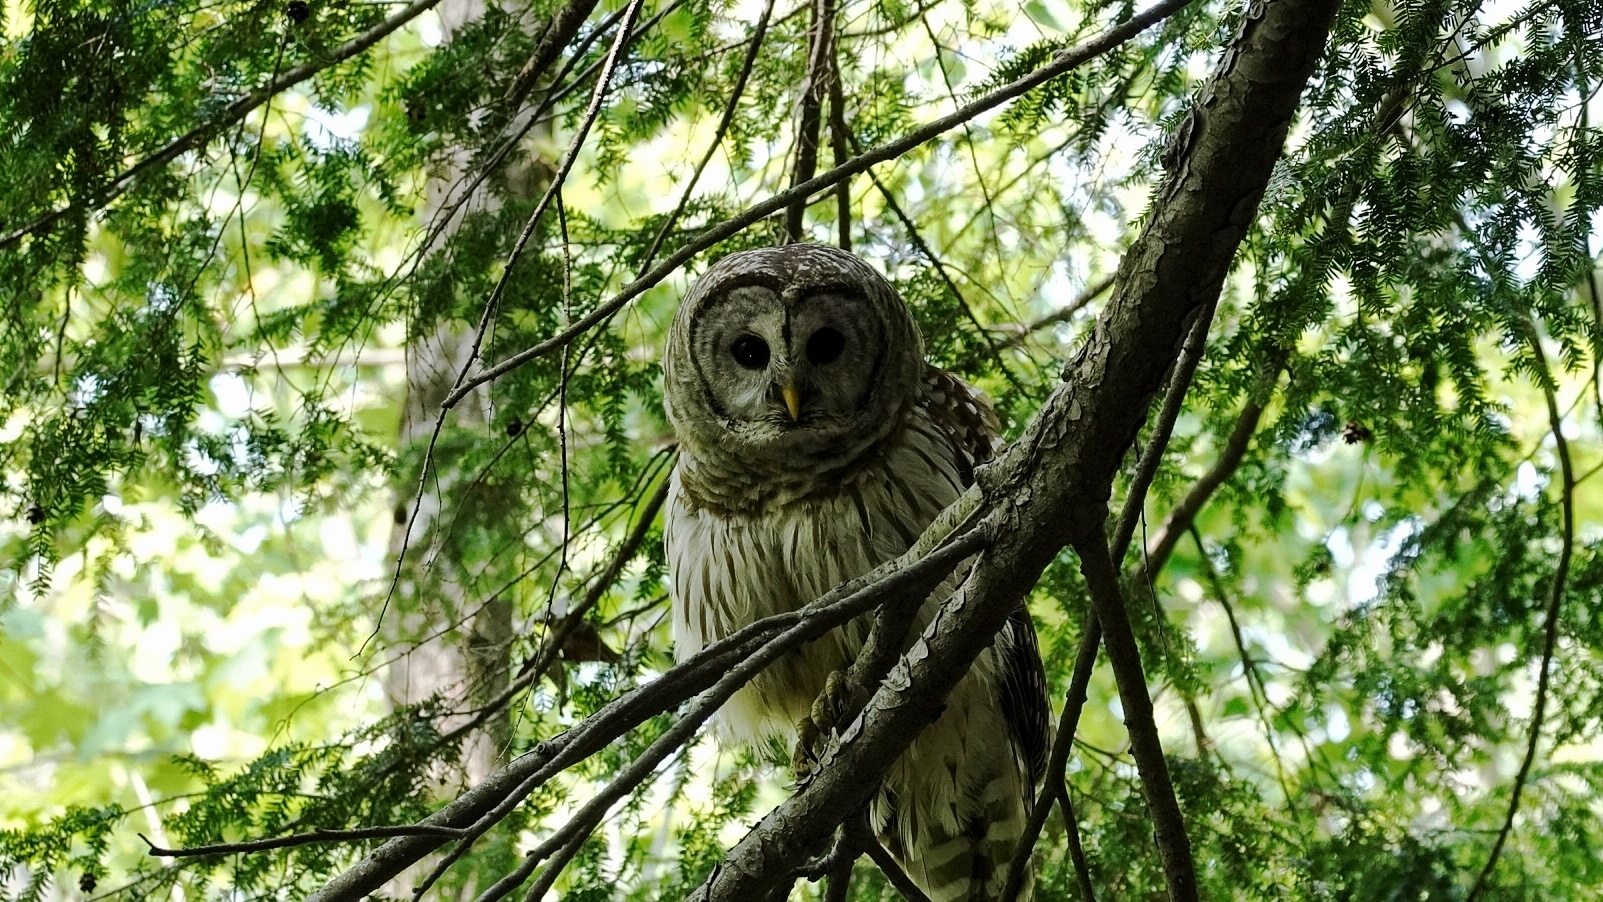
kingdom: Animalia
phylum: Chordata
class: Aves
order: Strigiformes
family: Strigidae
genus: Strix
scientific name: Strix varia
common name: Barred owl
